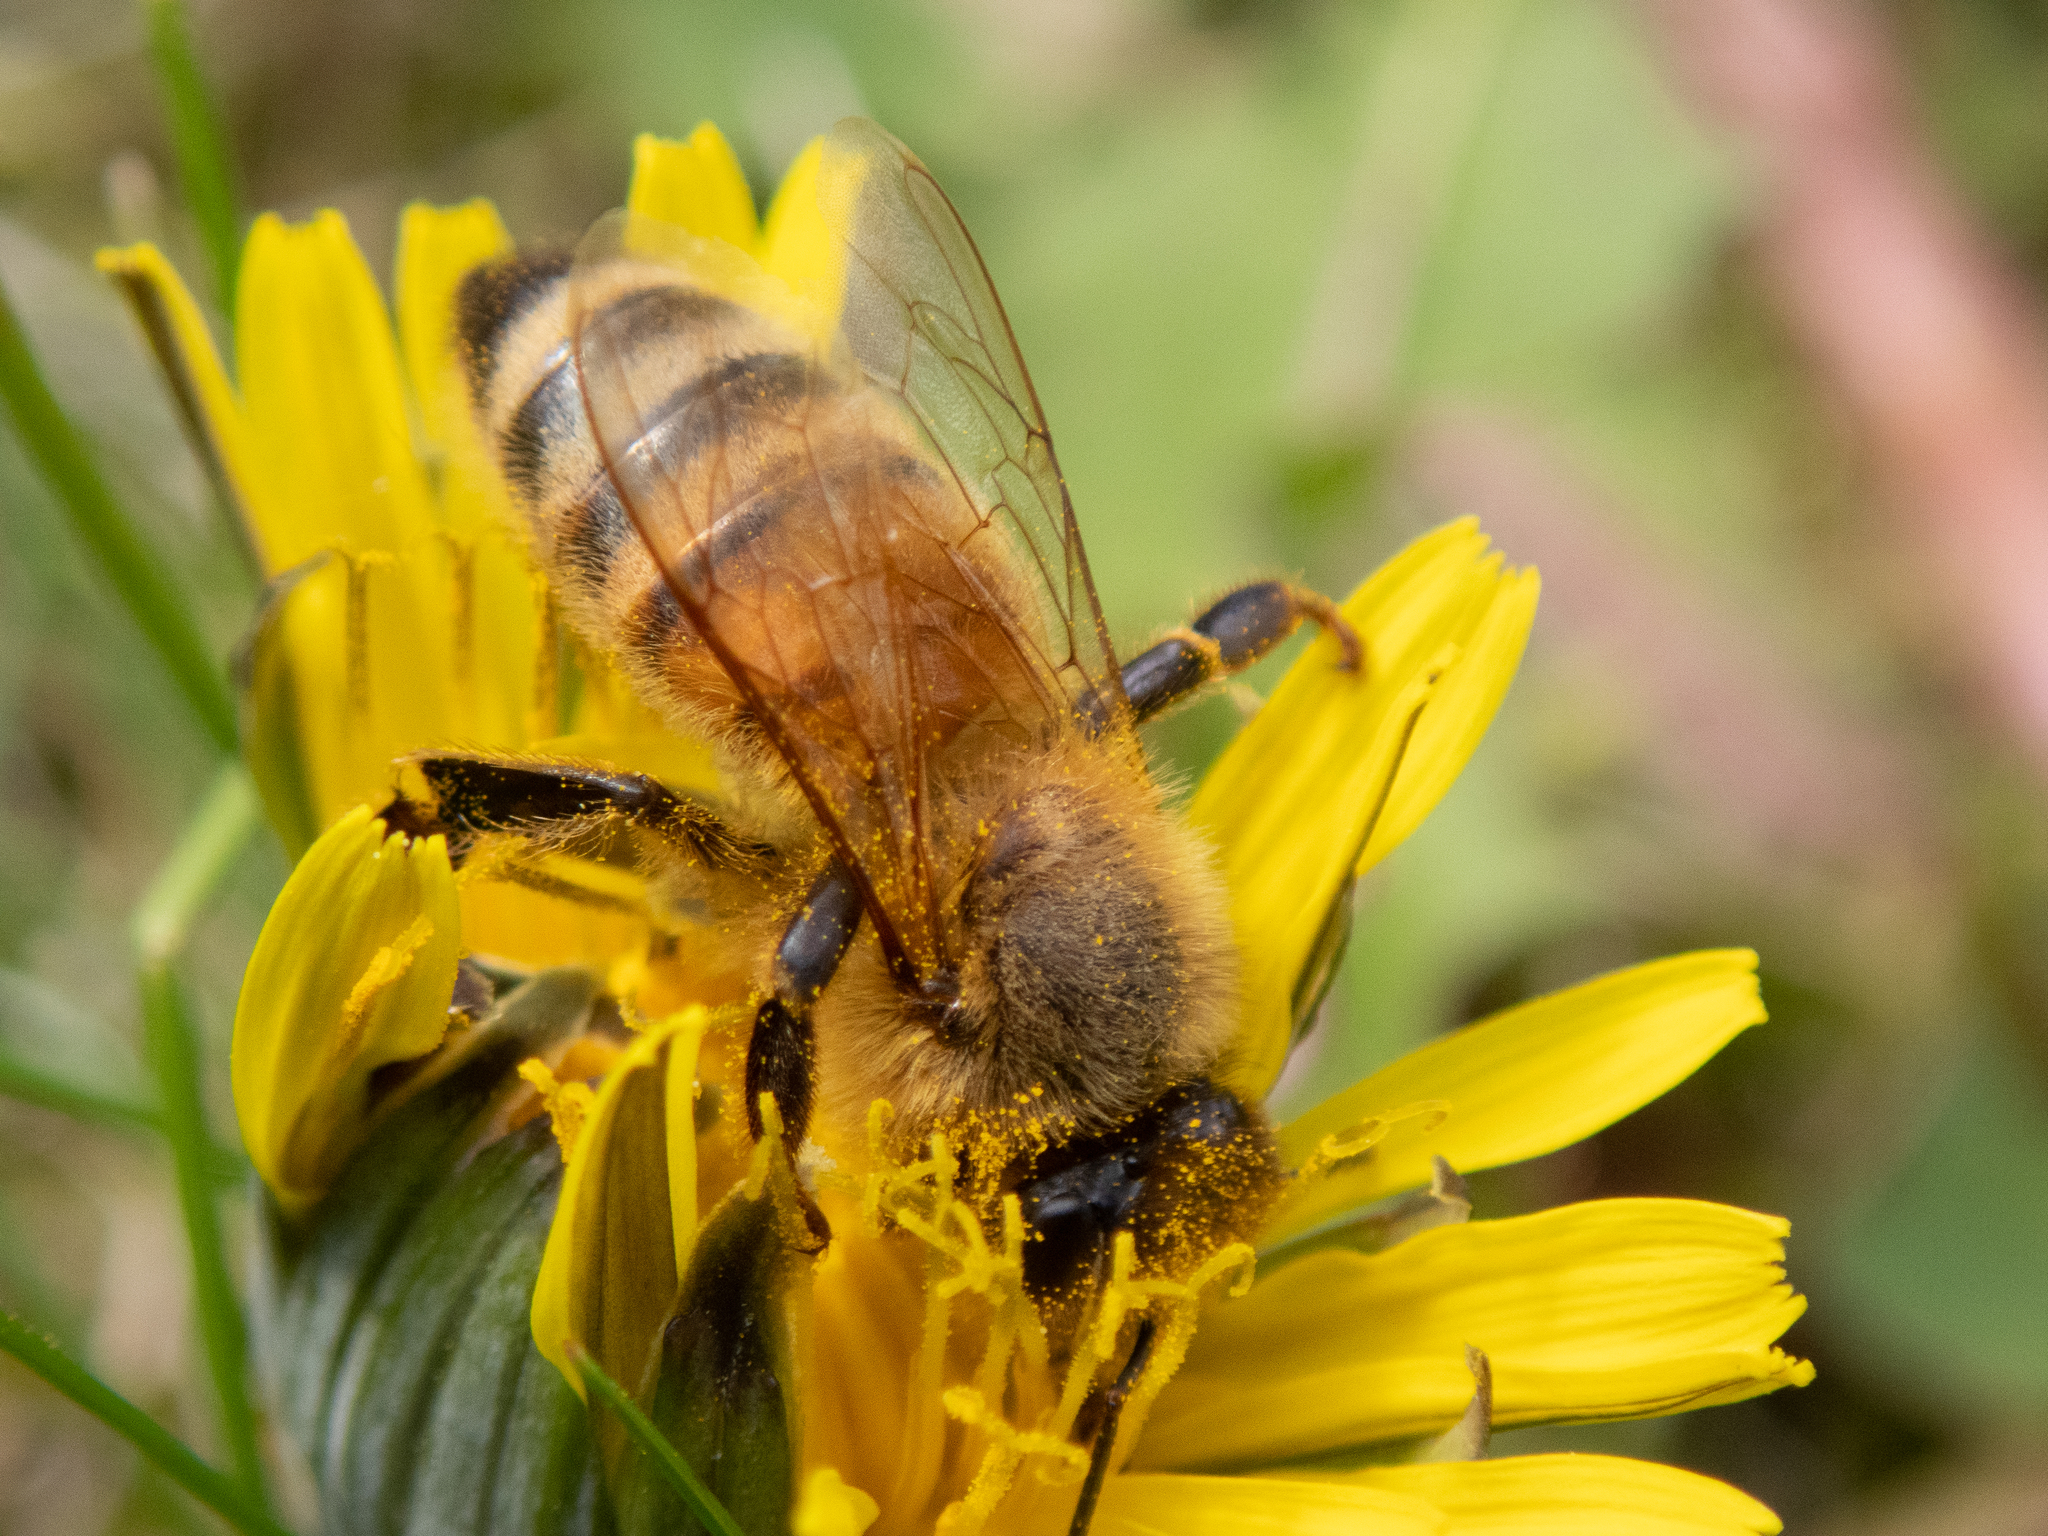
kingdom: Animalia
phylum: Arthropoda
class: Insecta
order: Hymenoptera
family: Apidae
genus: Apis
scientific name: Apis mellifera
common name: Honey bee
